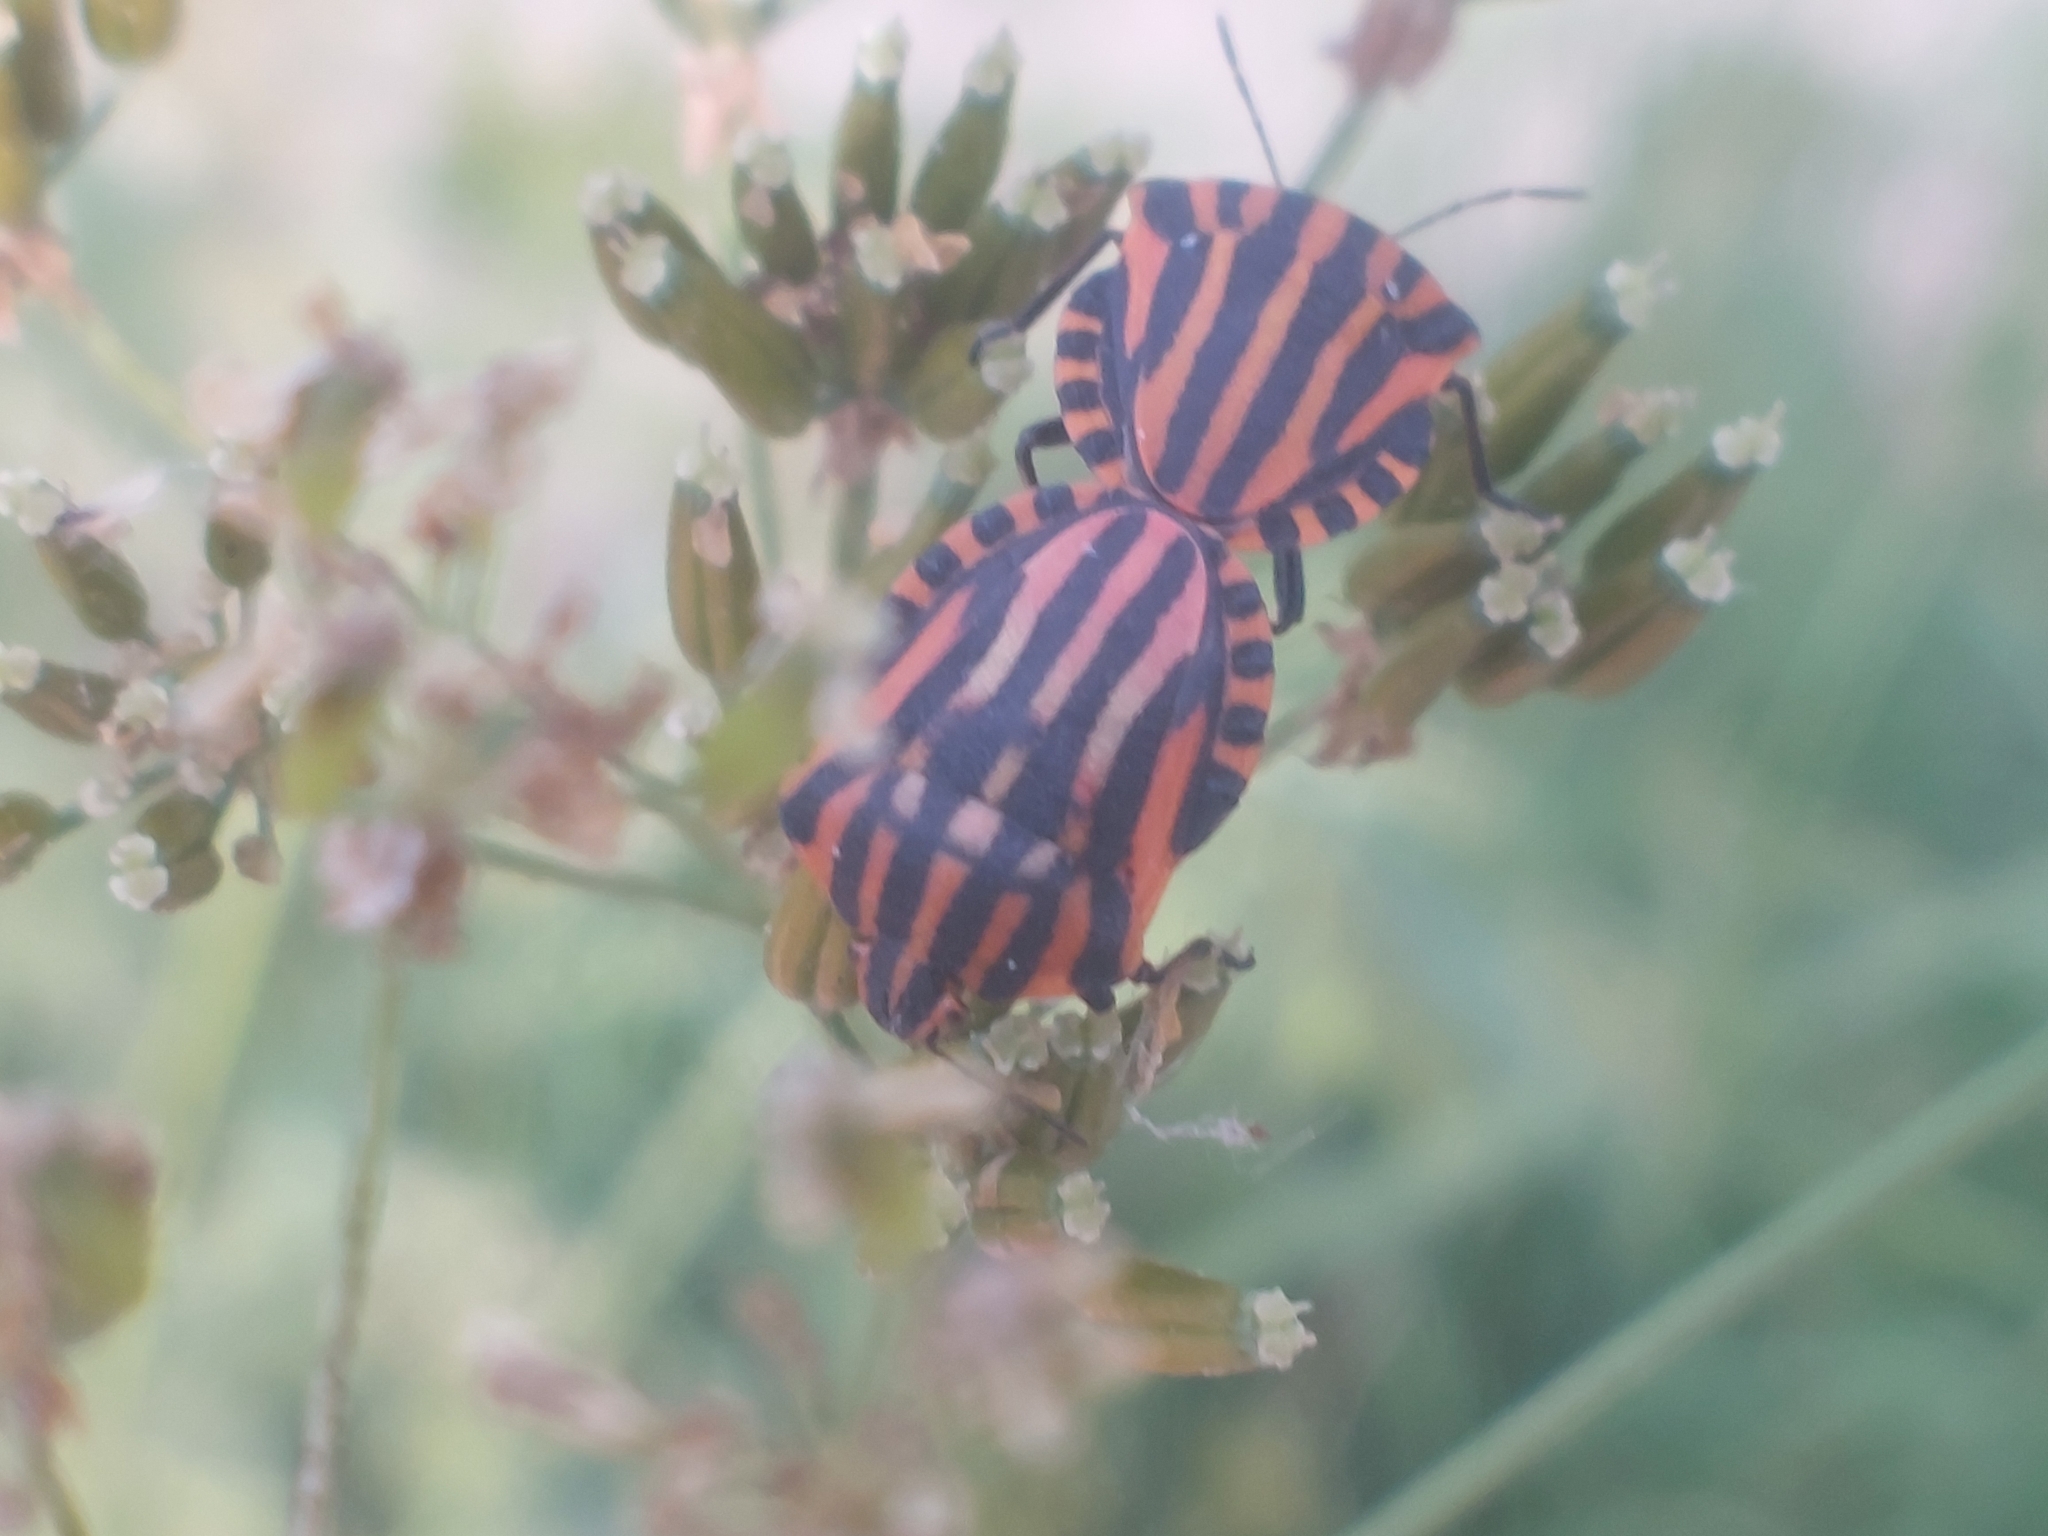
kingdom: Animalia
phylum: Arthropoda
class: Insecta
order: Hemiptera
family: Pentatomidae
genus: Graphosoma
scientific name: Graphosoma italicum
